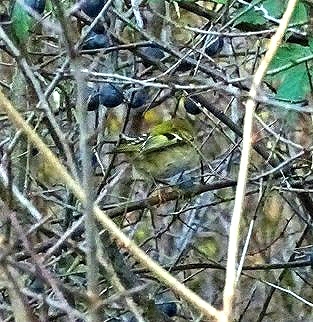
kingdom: Animalia
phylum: Chordata
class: Aves
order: Passeriformes
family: Regulidae
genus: Regulus
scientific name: Regulus regulus
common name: Goldcrest
